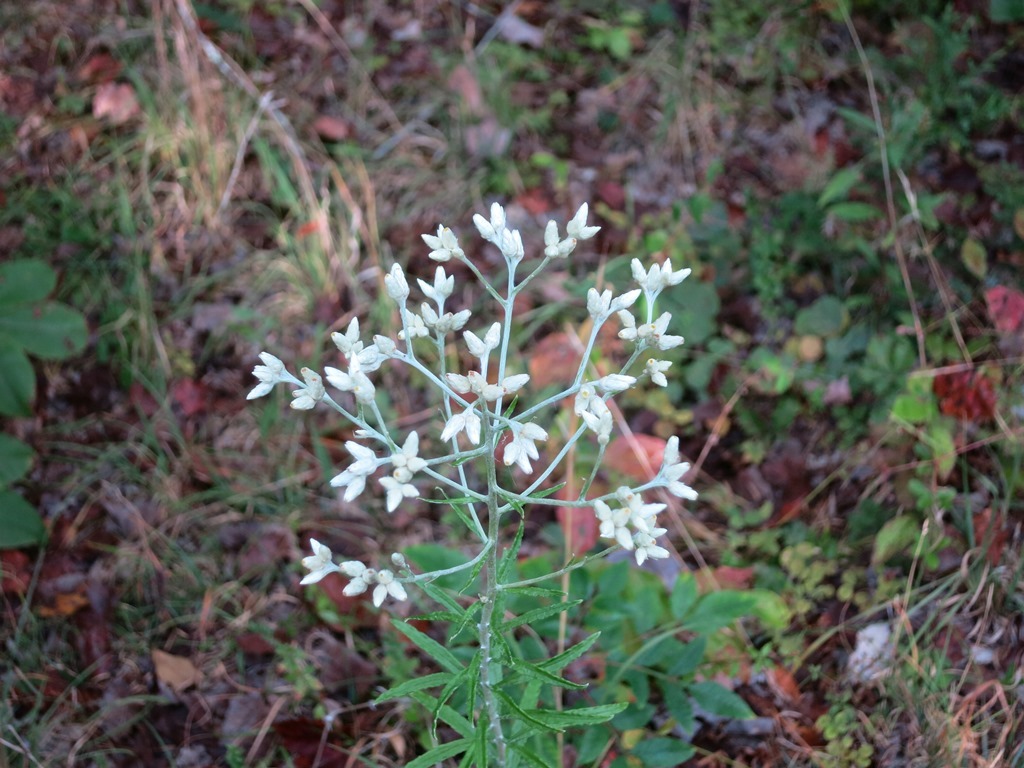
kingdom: Plantae
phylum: Tracheophyta
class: Magnoliopsida
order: Asterales
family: Asteraceae
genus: Pseudognaphalium
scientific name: Pseudognaphalium obtusifolium
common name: Eastern rabbit-tobacco
